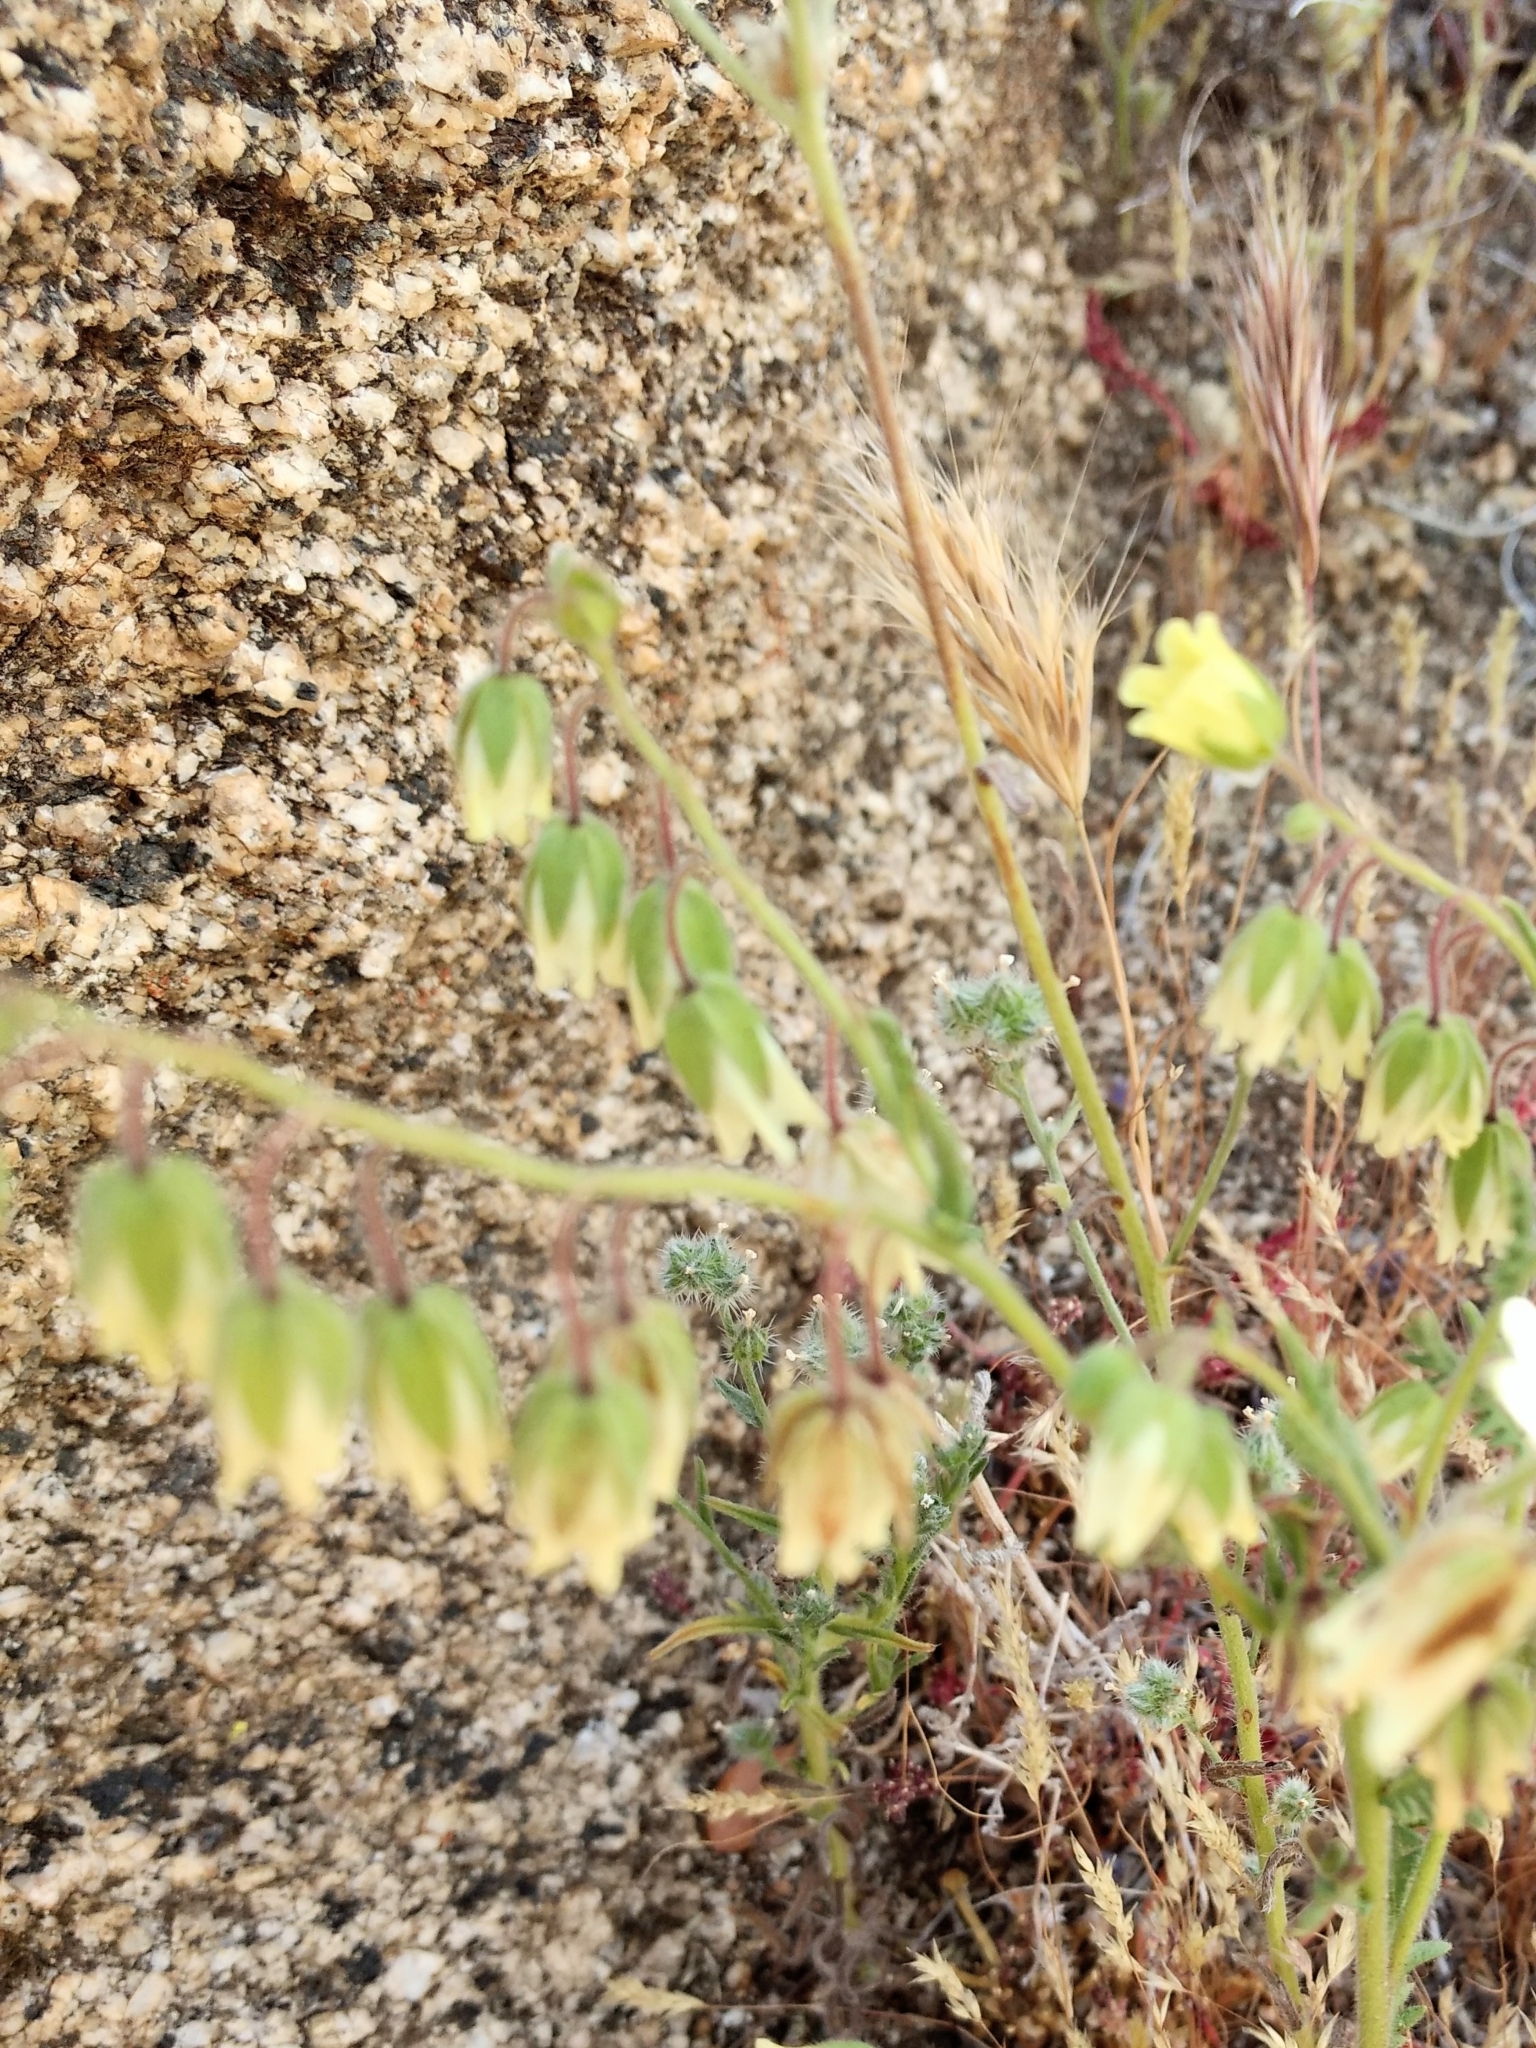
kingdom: Plantae
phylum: Tracheophyta
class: Magnoliopsida
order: Boraginales
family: Hydrophyllaceae
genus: Emmenanthe
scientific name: Emmenanthe penduliflora
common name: Whispering-bells
